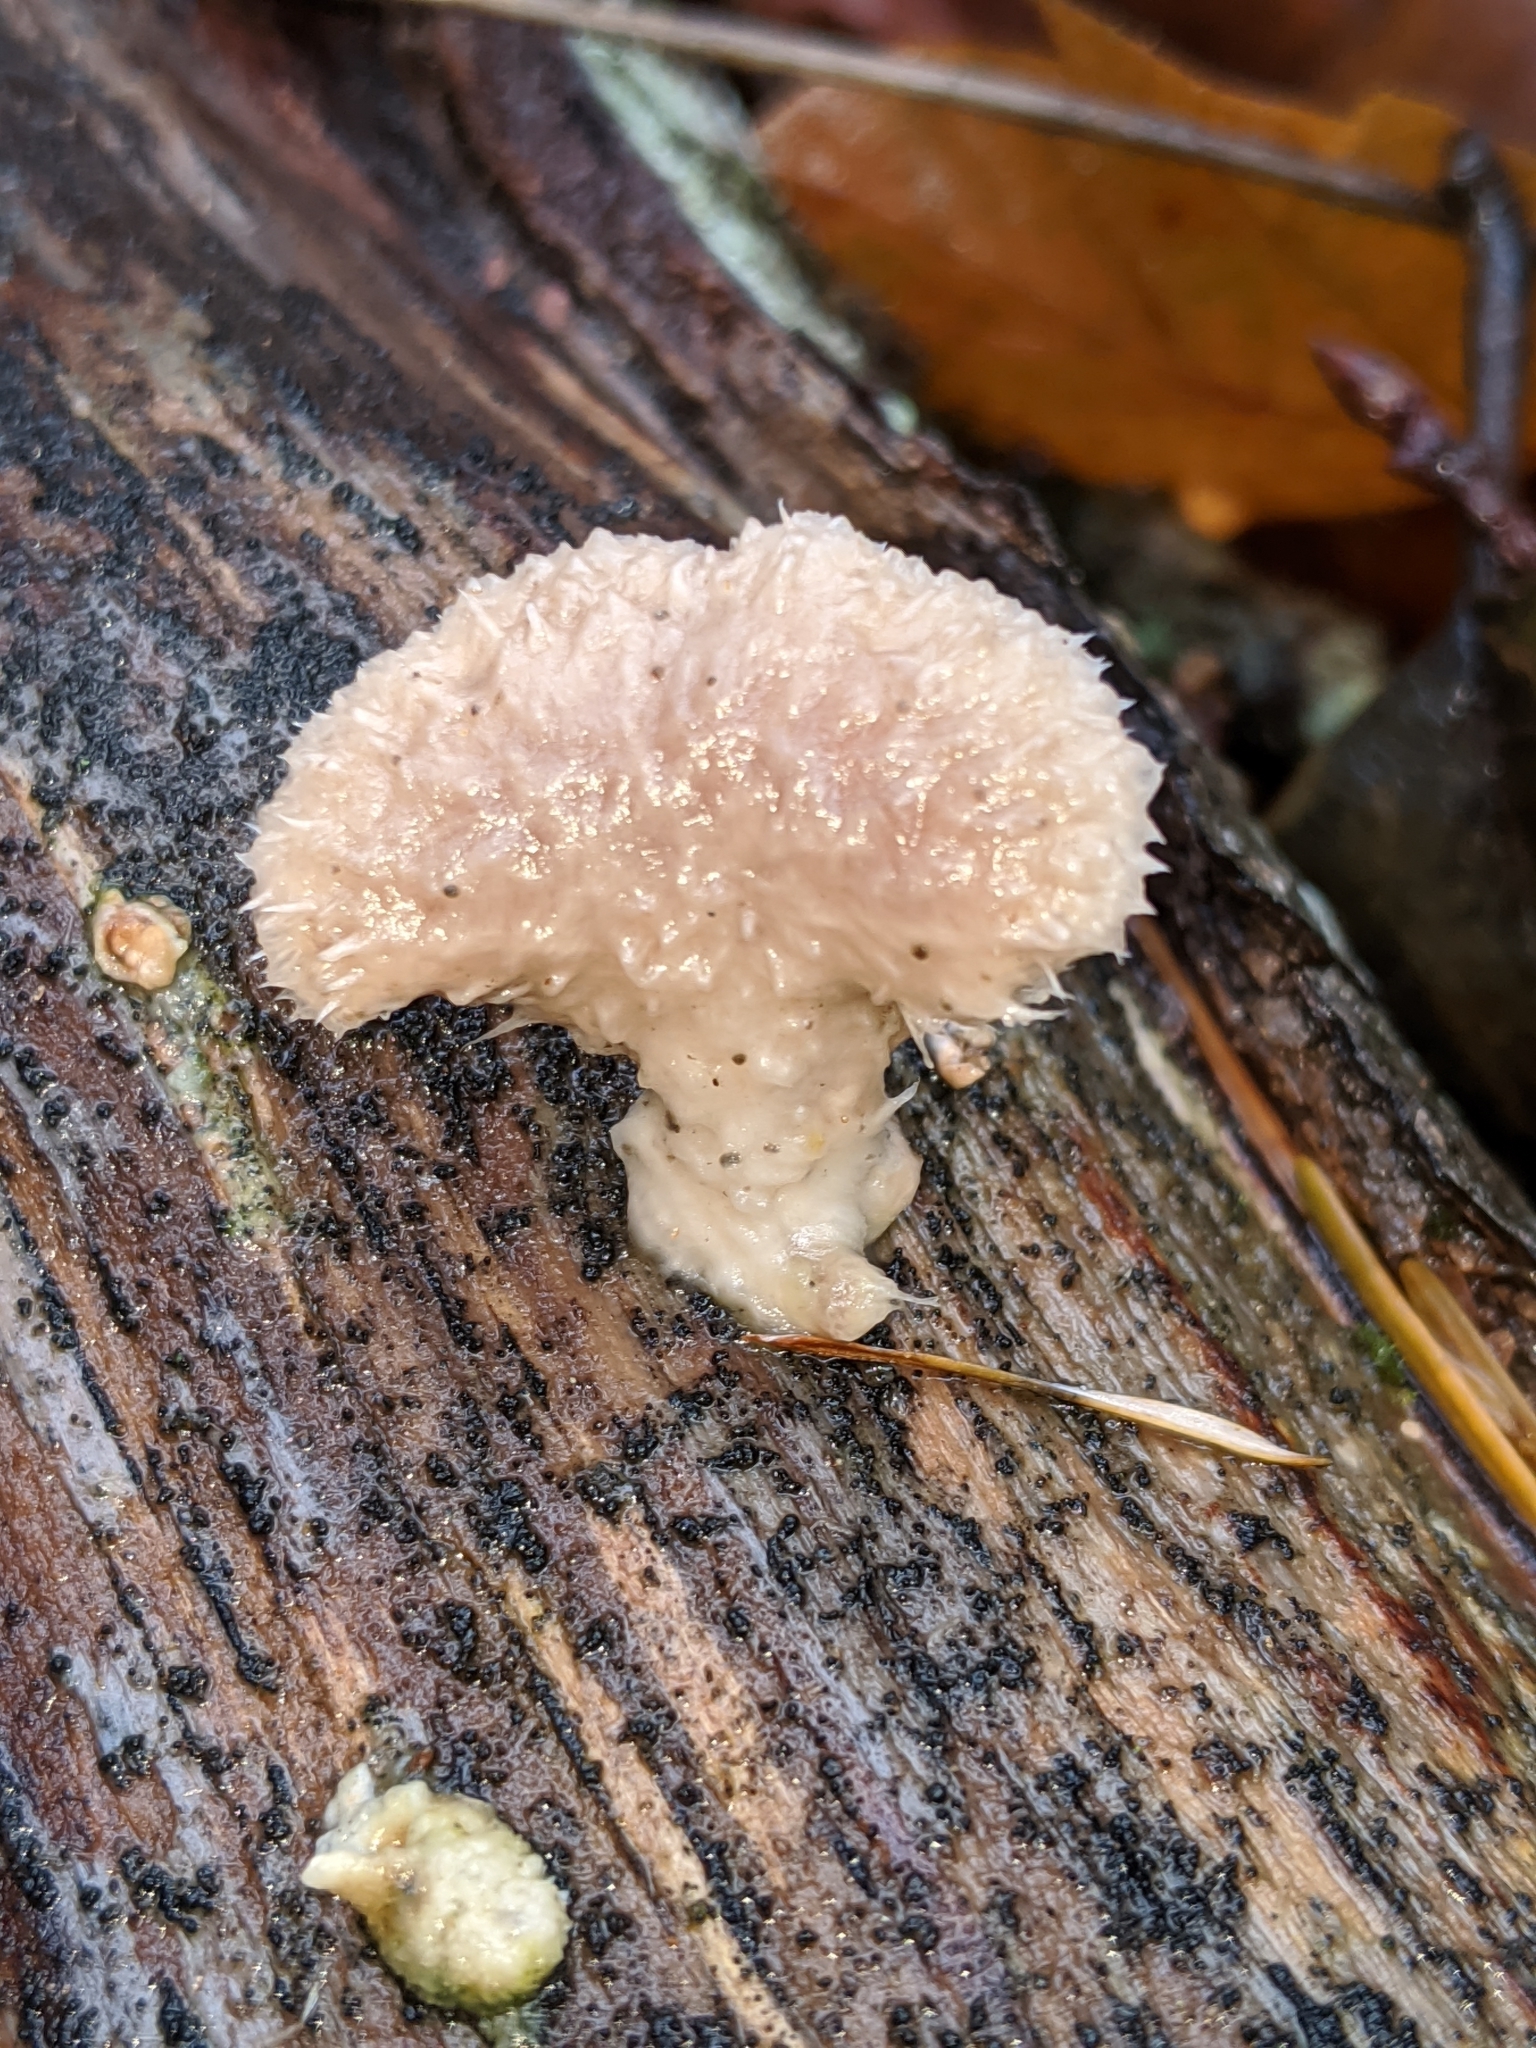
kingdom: Fungi
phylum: Basidiomycota
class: Agaricomycetes
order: Agaricales
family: Schizophyllaceae
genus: Schizophyllum
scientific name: Schizophyllum commune
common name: Common porecrust
